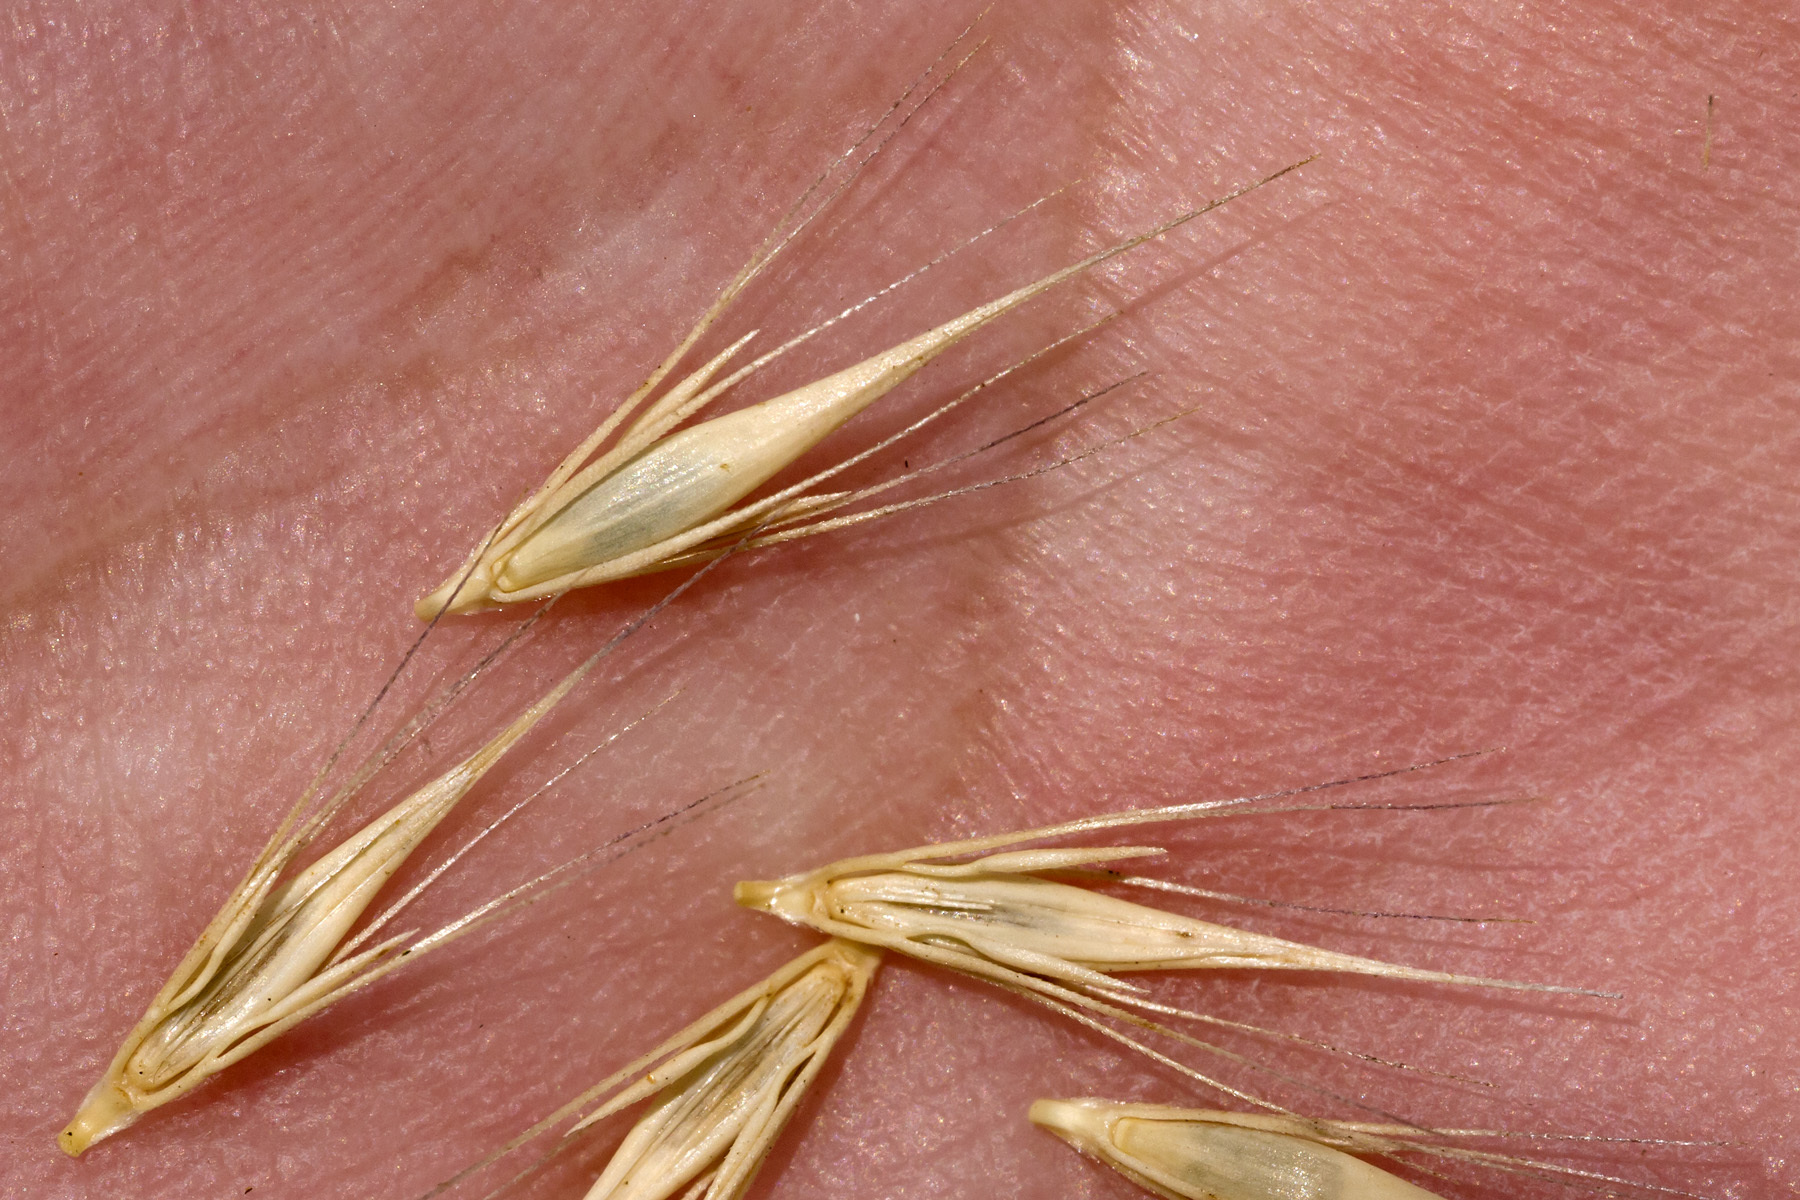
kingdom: Plantae
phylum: Tracheophyta
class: Liliopsida
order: Poales
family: Poaceae
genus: Hordeum
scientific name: Hordeum depressum
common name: Low barley
